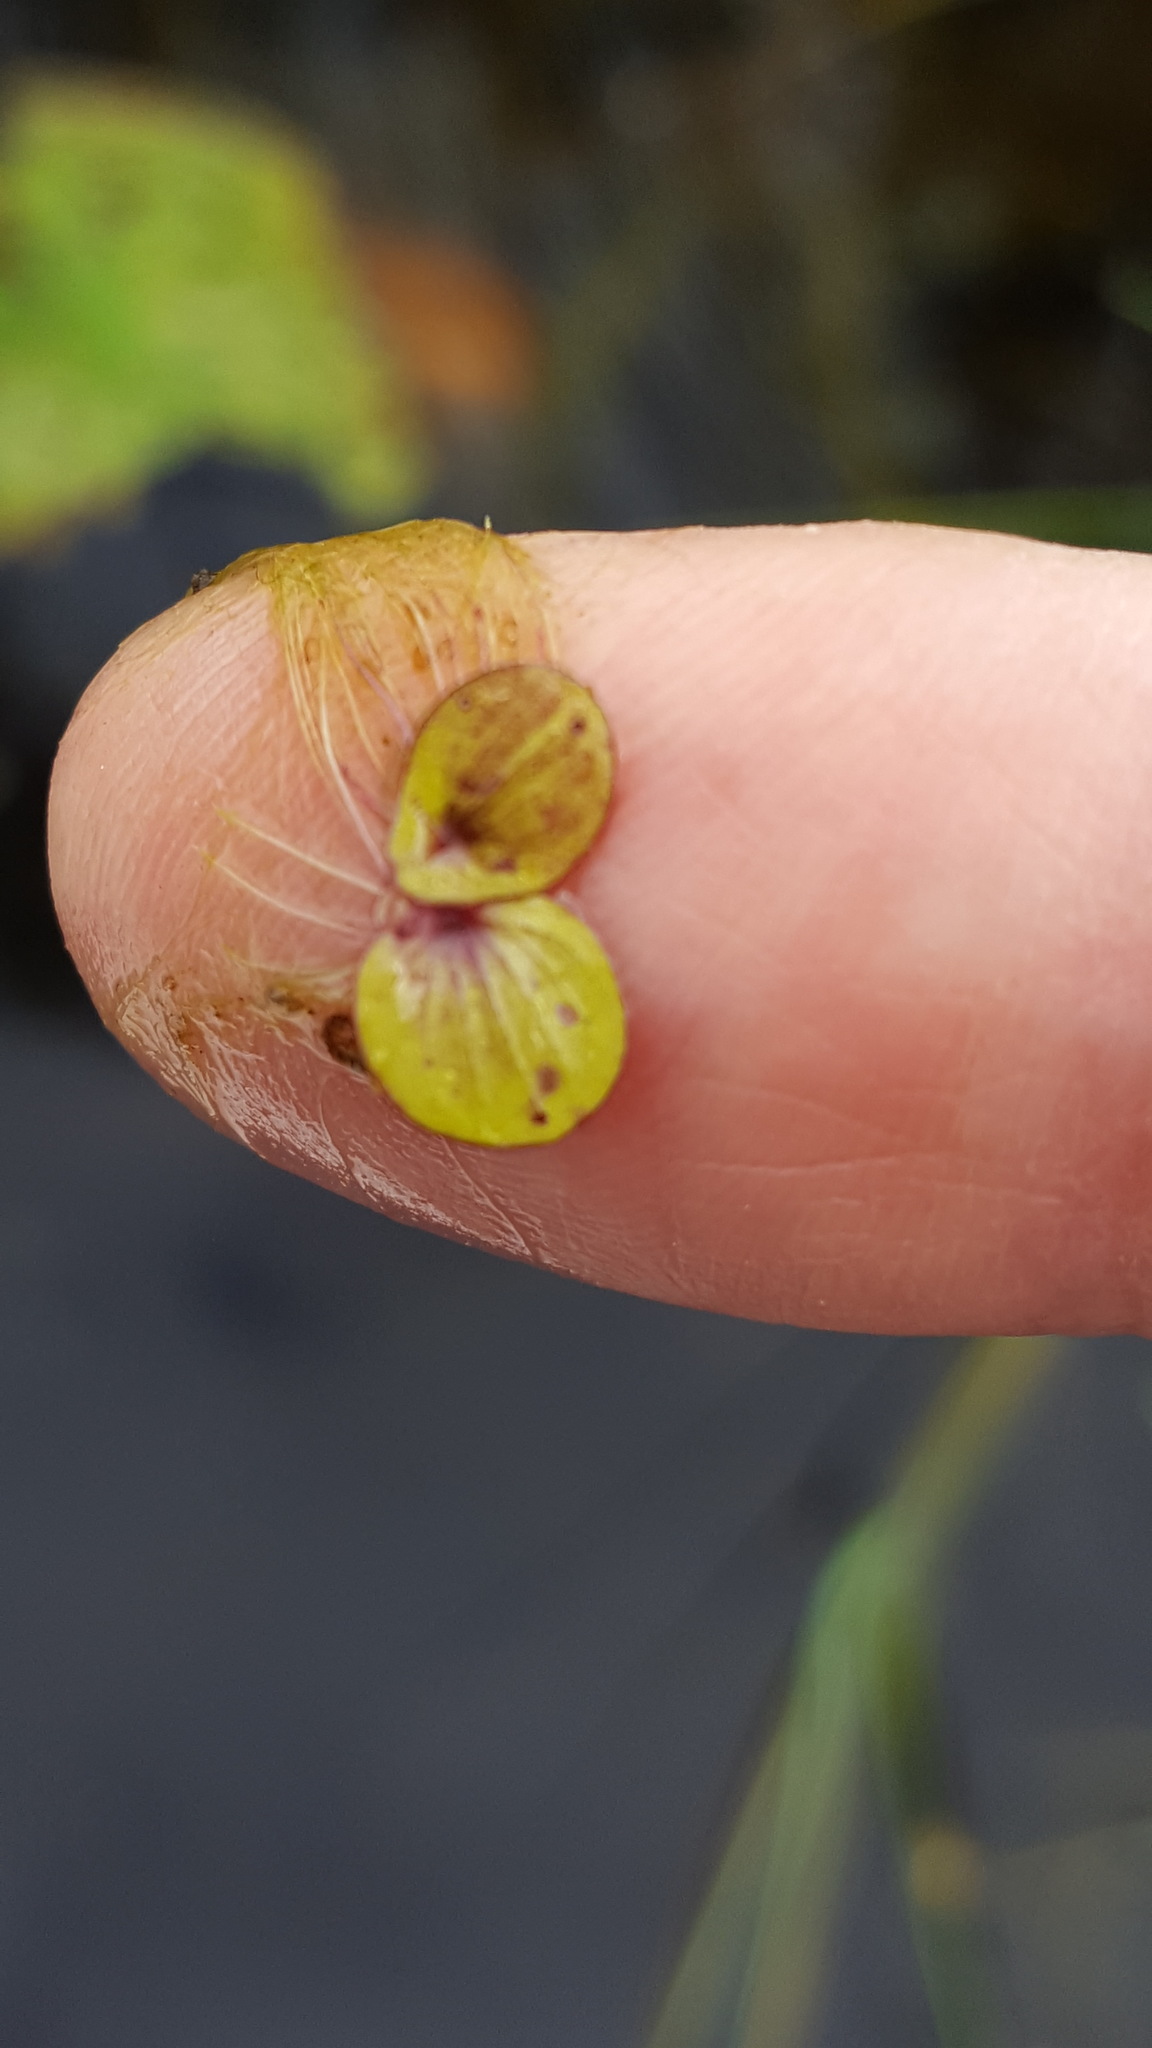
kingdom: Plantae
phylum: Tracheophyta
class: Liliopsida
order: Alismatales
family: Araceae
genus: Spirodela
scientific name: Spirodela polyrhiza
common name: Great duckweed
